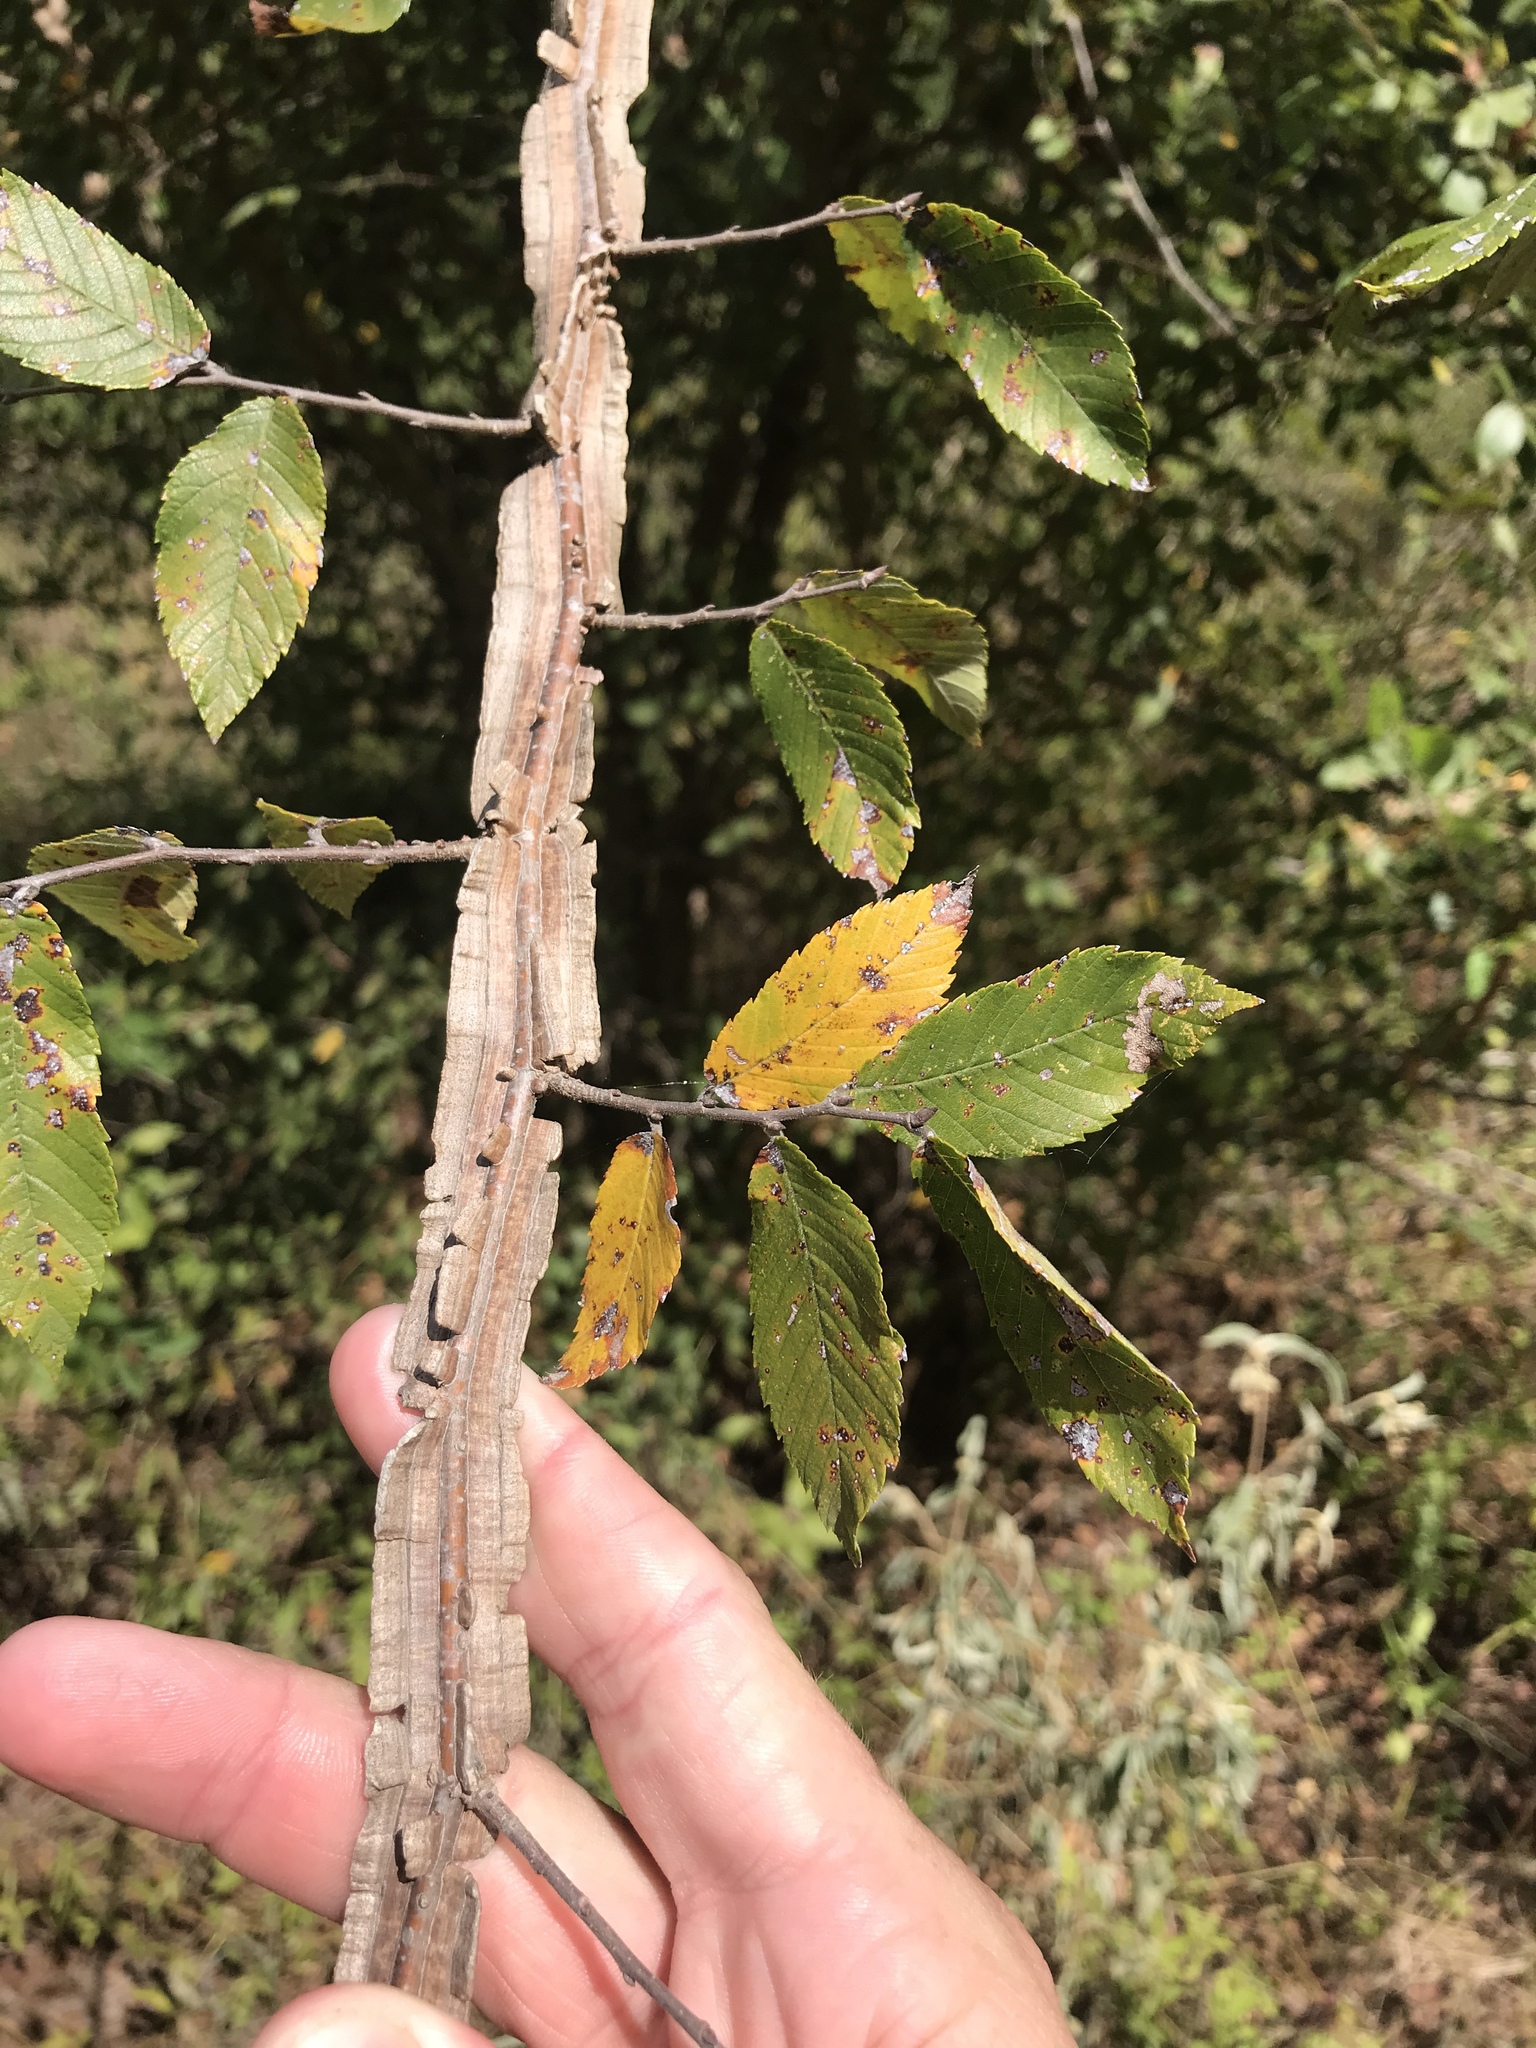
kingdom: Plantae
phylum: Tracheophyta
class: Magnoliopsida
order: Rosales
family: Ulmaceae
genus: Ulmus
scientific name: Ulmus alata
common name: Winged elm
